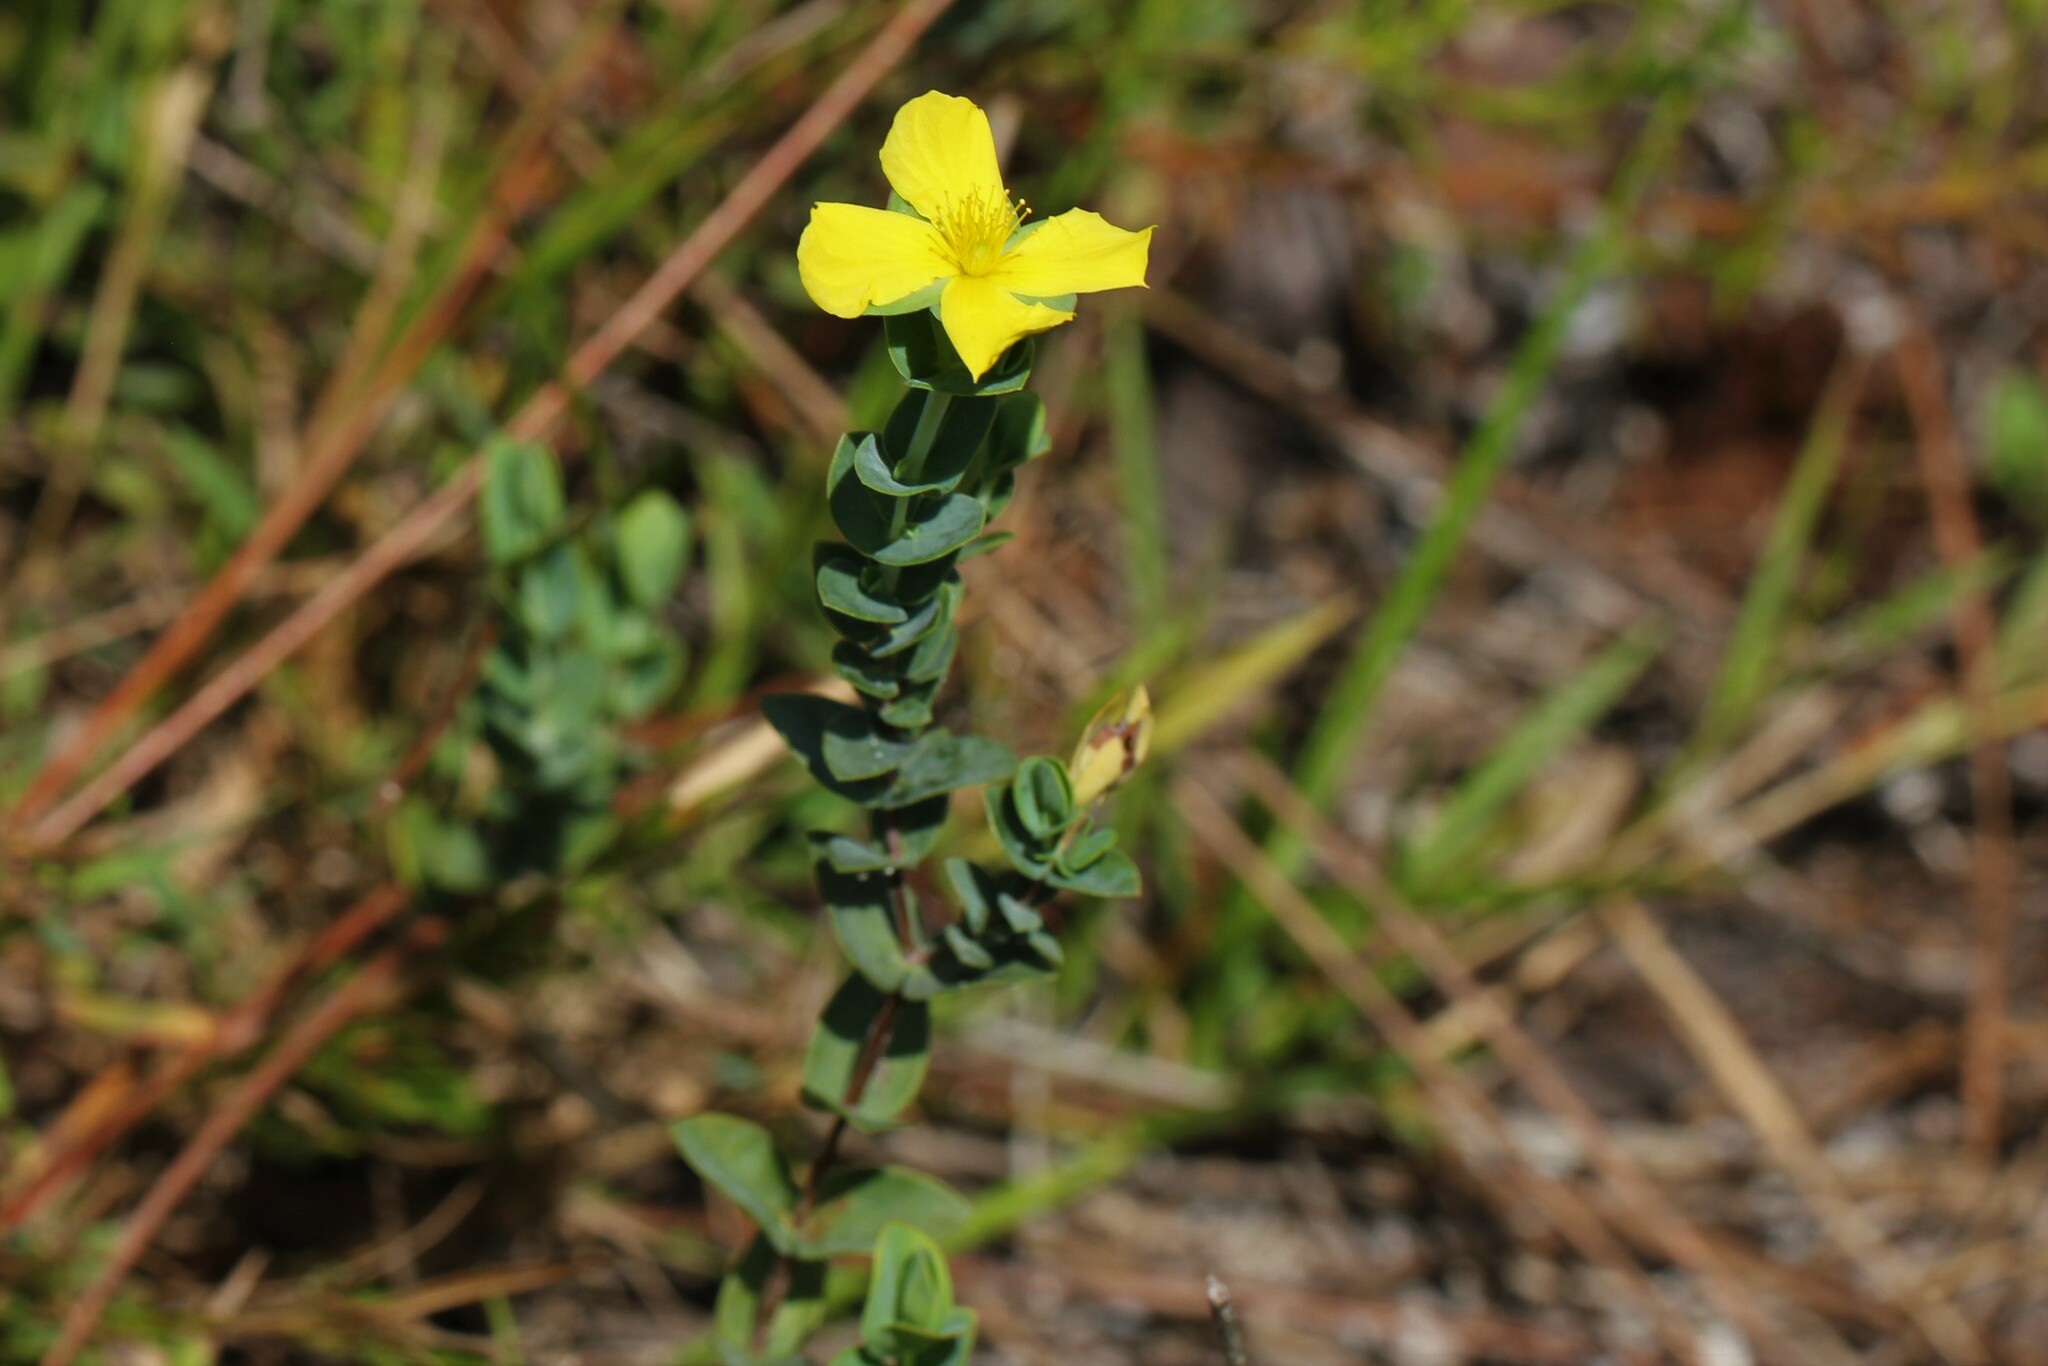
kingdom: Plantae
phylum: Tracheophyta
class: Magnoliopsida
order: Malpighiales
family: Hypericaceae
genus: Hypericum
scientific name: Hypericum tetrapetalum
